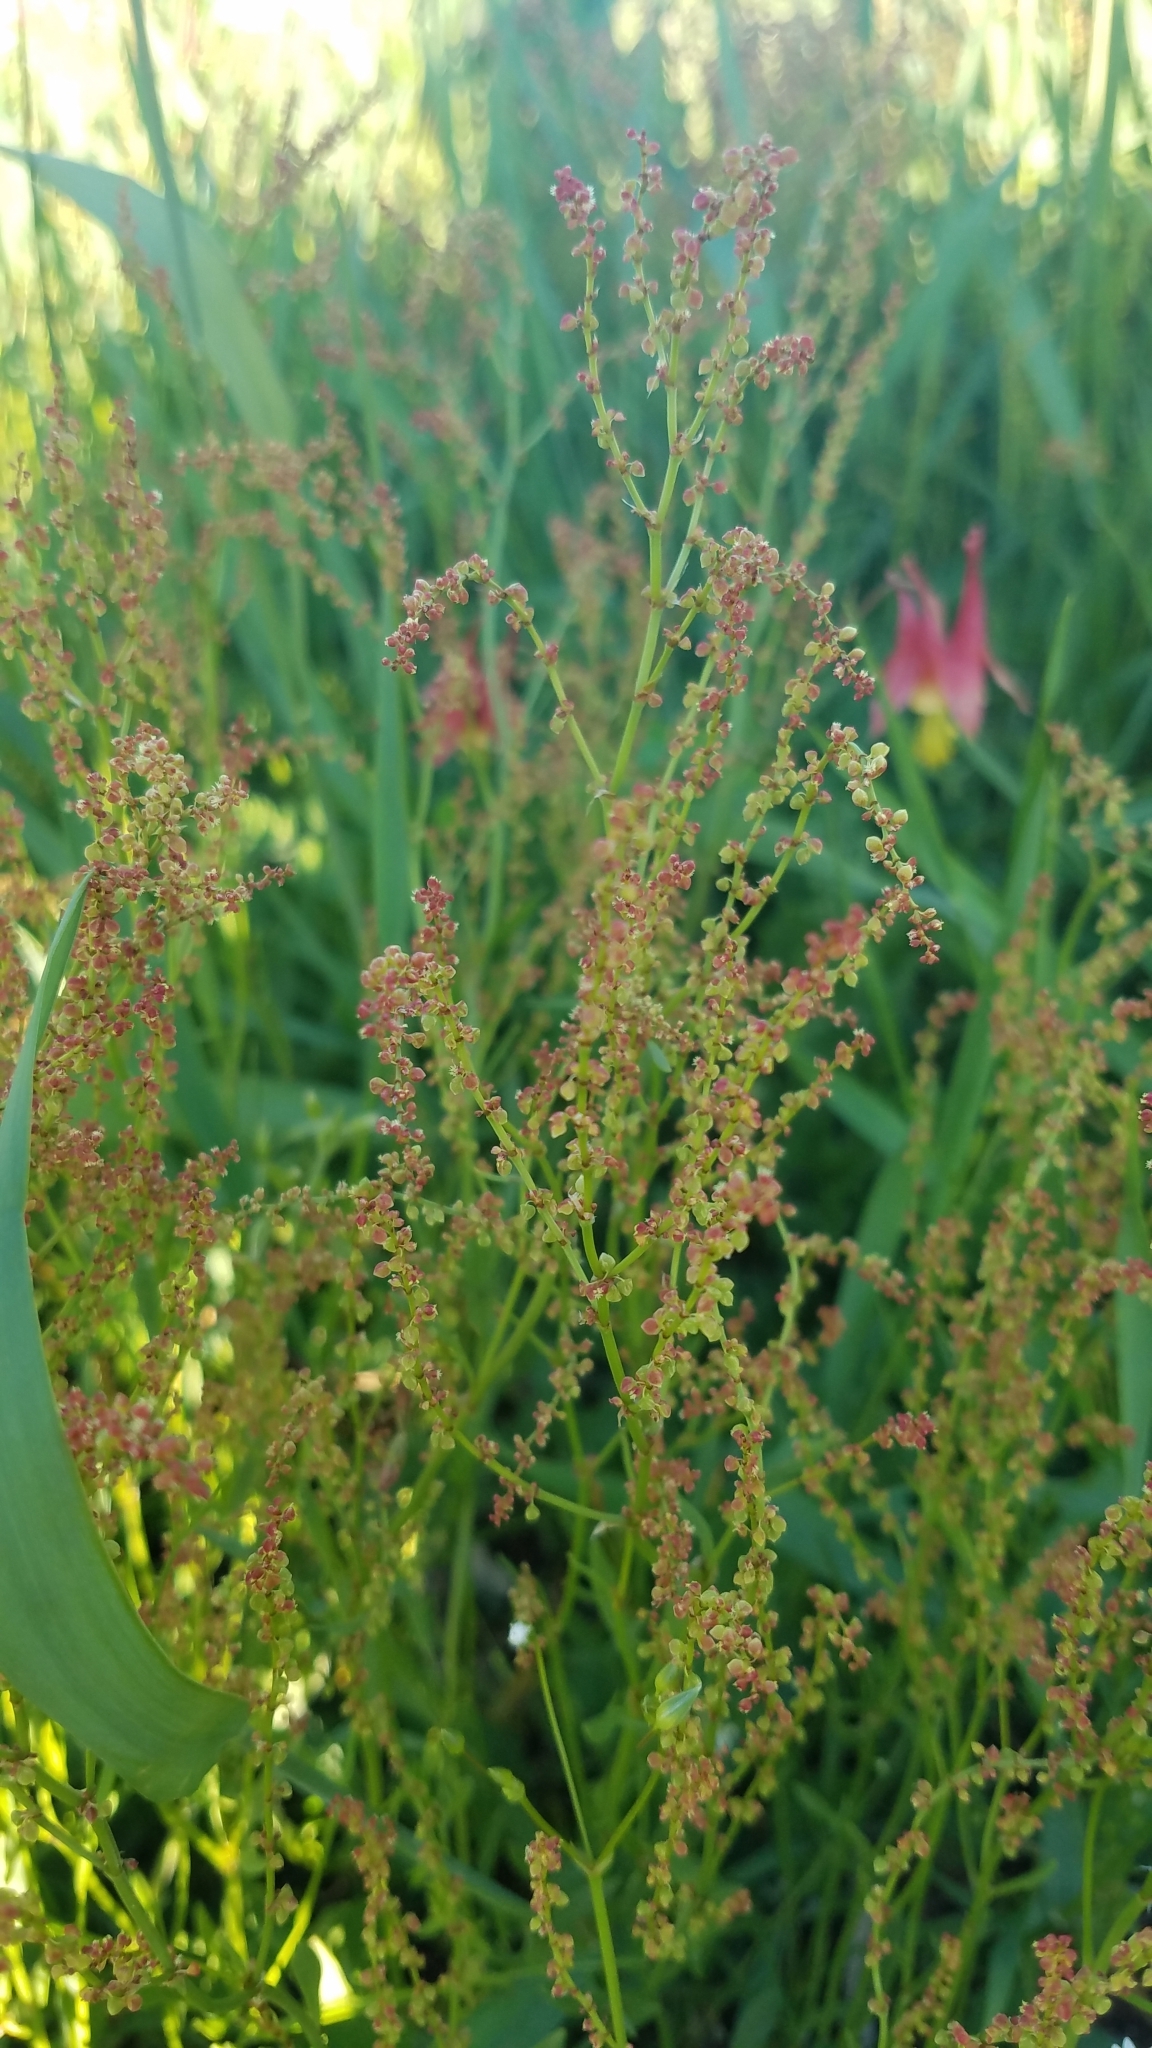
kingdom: Plantae
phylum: Tracheophyta
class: Magnoliopsida
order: Caryophyllales
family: Polygonaceae
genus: Rumex
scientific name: Rumex acetosella
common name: Common sheep sorrel
